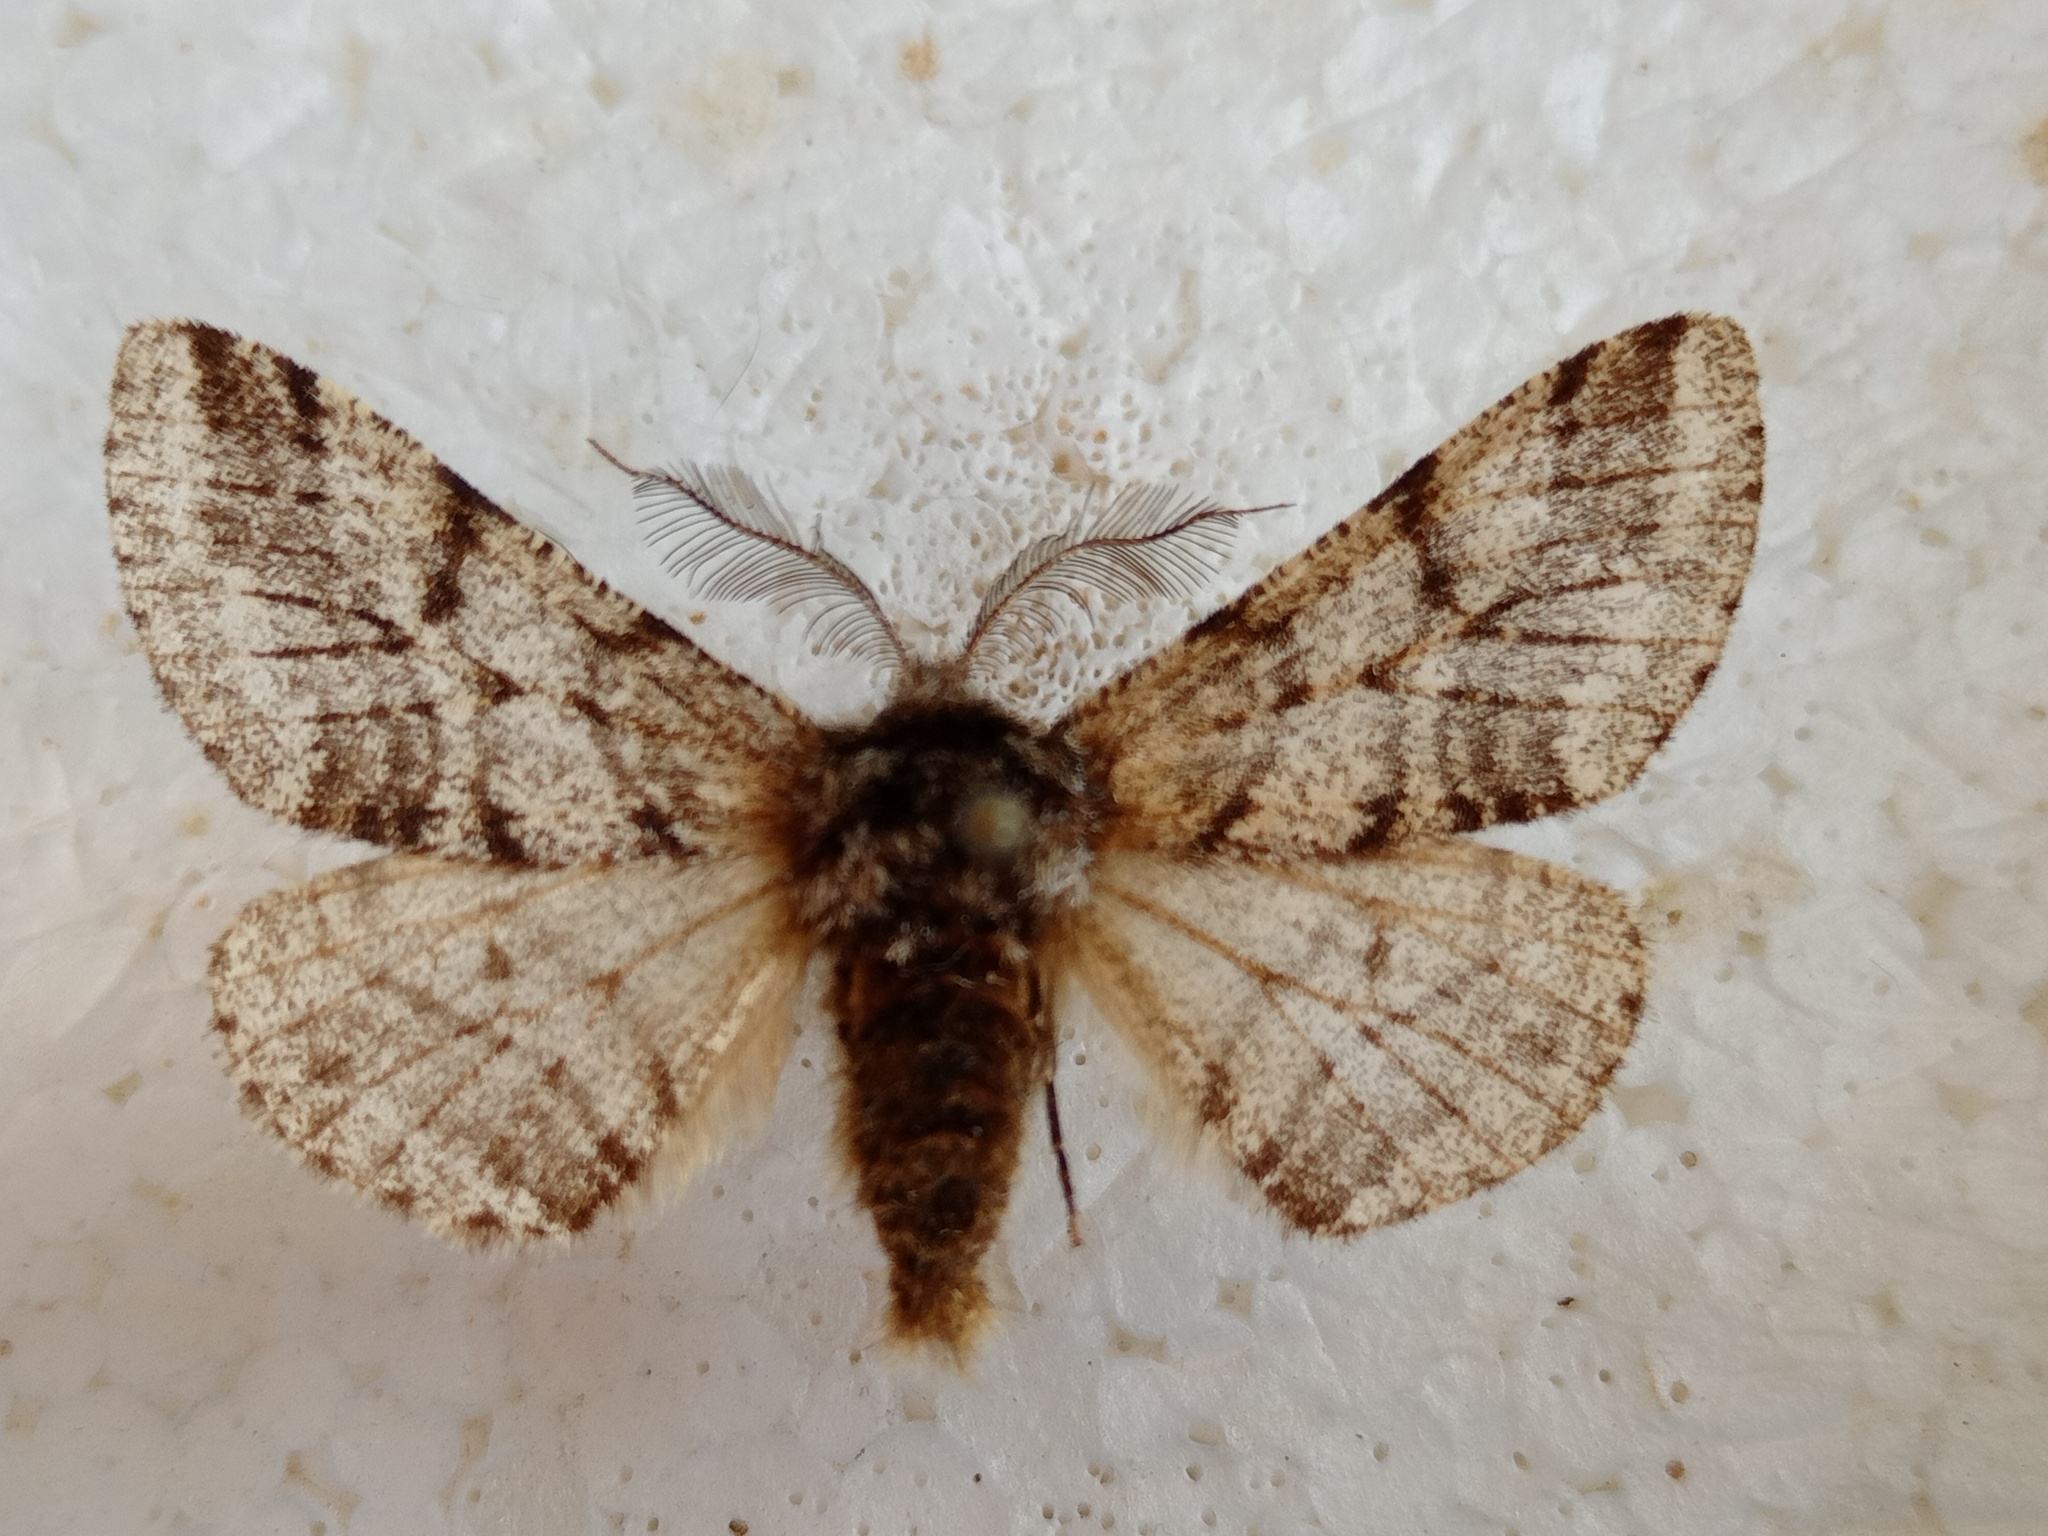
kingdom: Animalia
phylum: Arthropoda
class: Insecta
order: Lepidoptera
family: Geometridae
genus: Lycia
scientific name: Lycia hirtaria
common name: Brindled beauty
